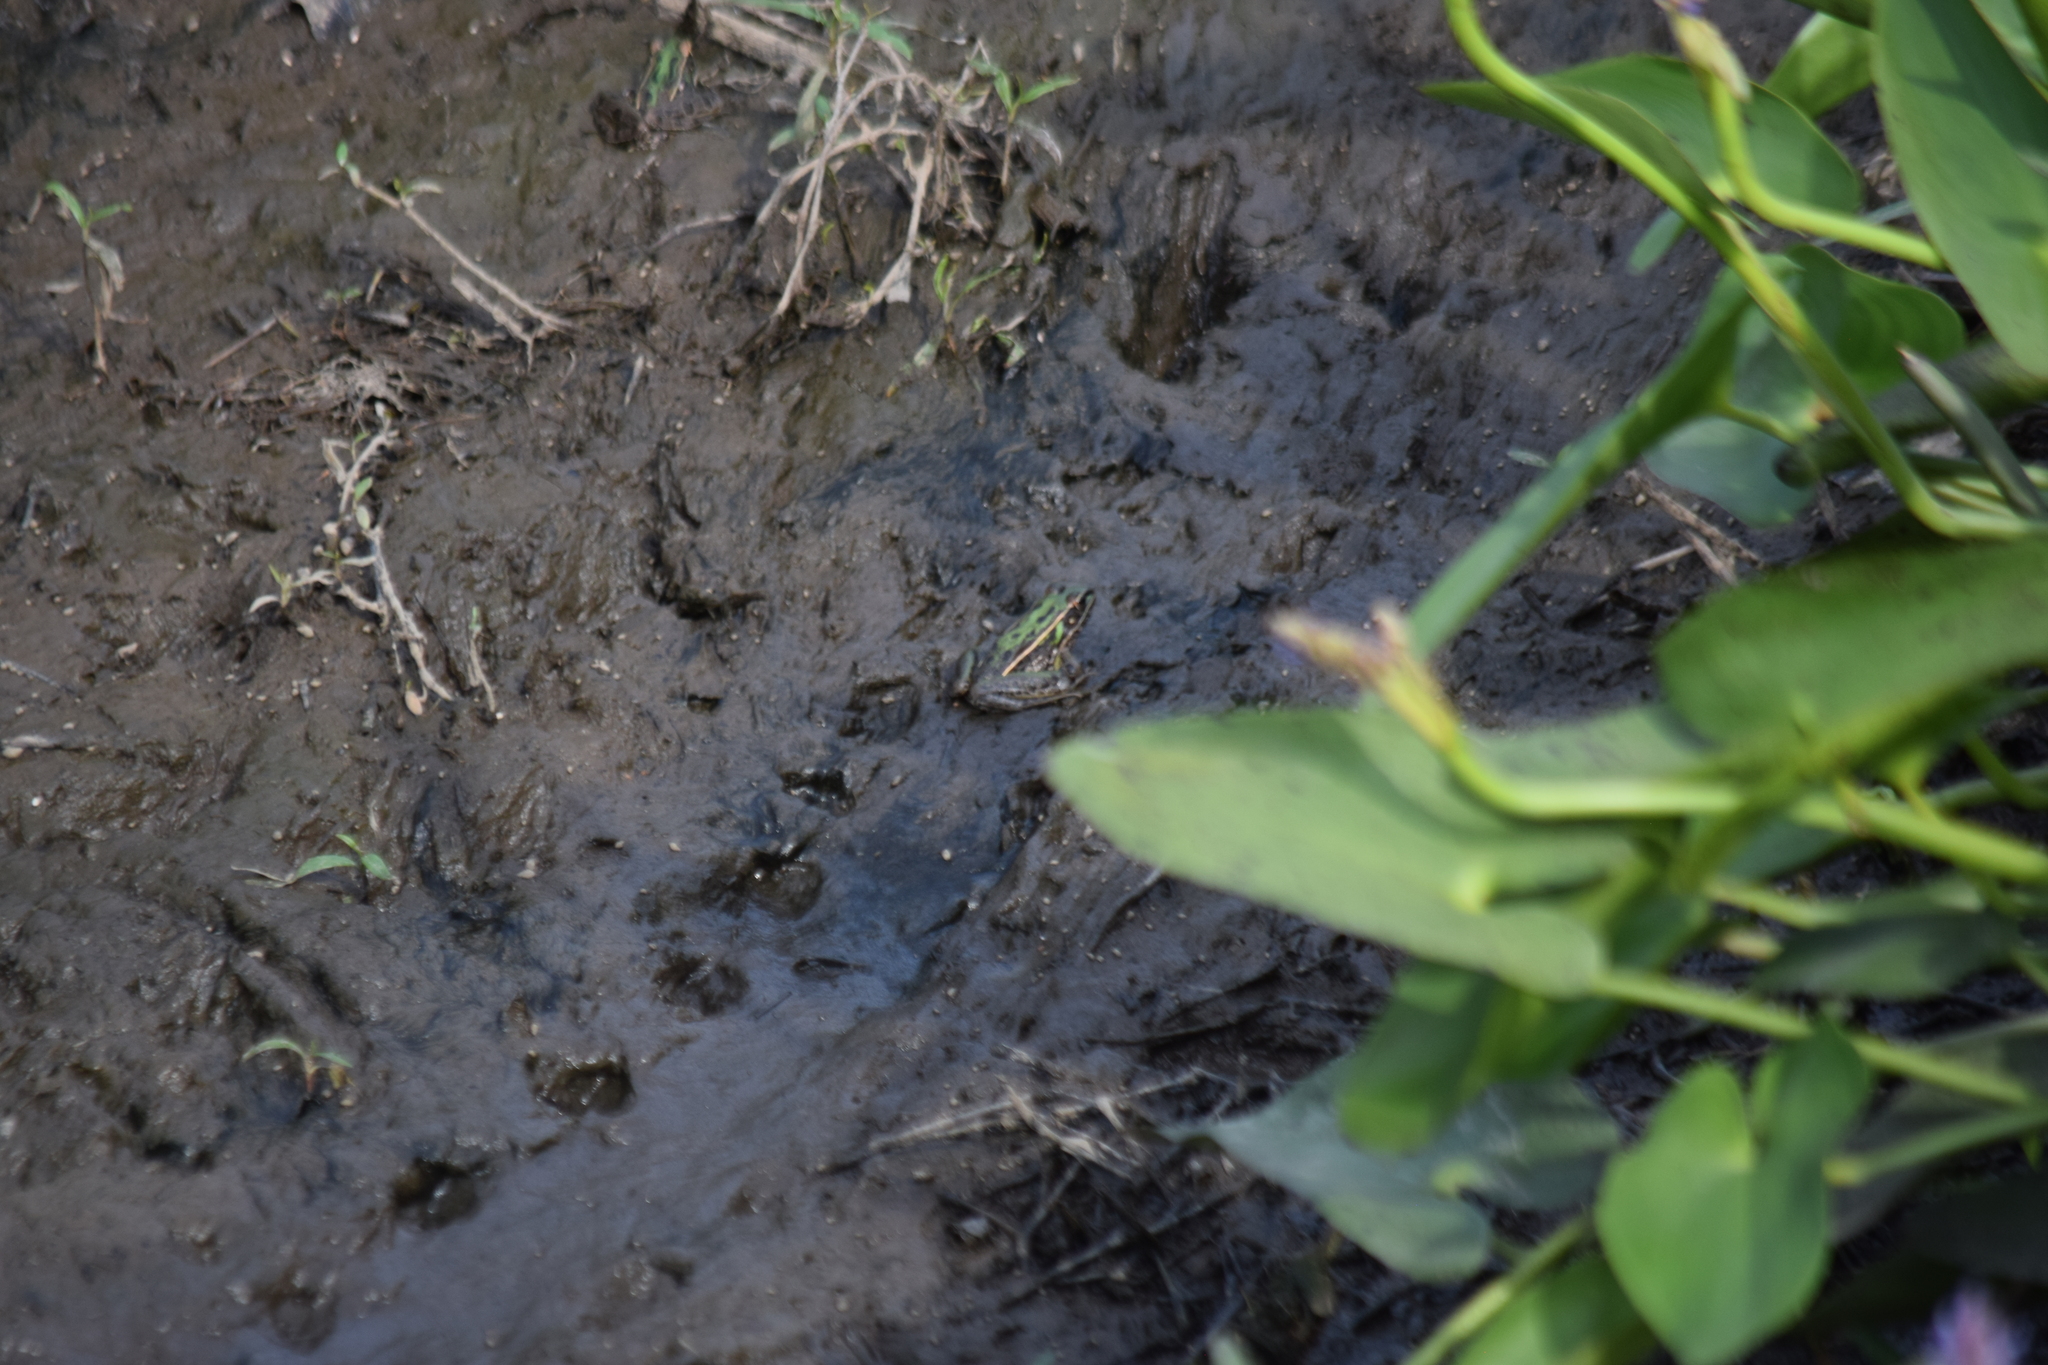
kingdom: Animalia
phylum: Chordata
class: Amphibia
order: Anura
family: Ranidae
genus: Lithobates
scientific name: Lithobates sphenocephalus
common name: Southern leopard frog
